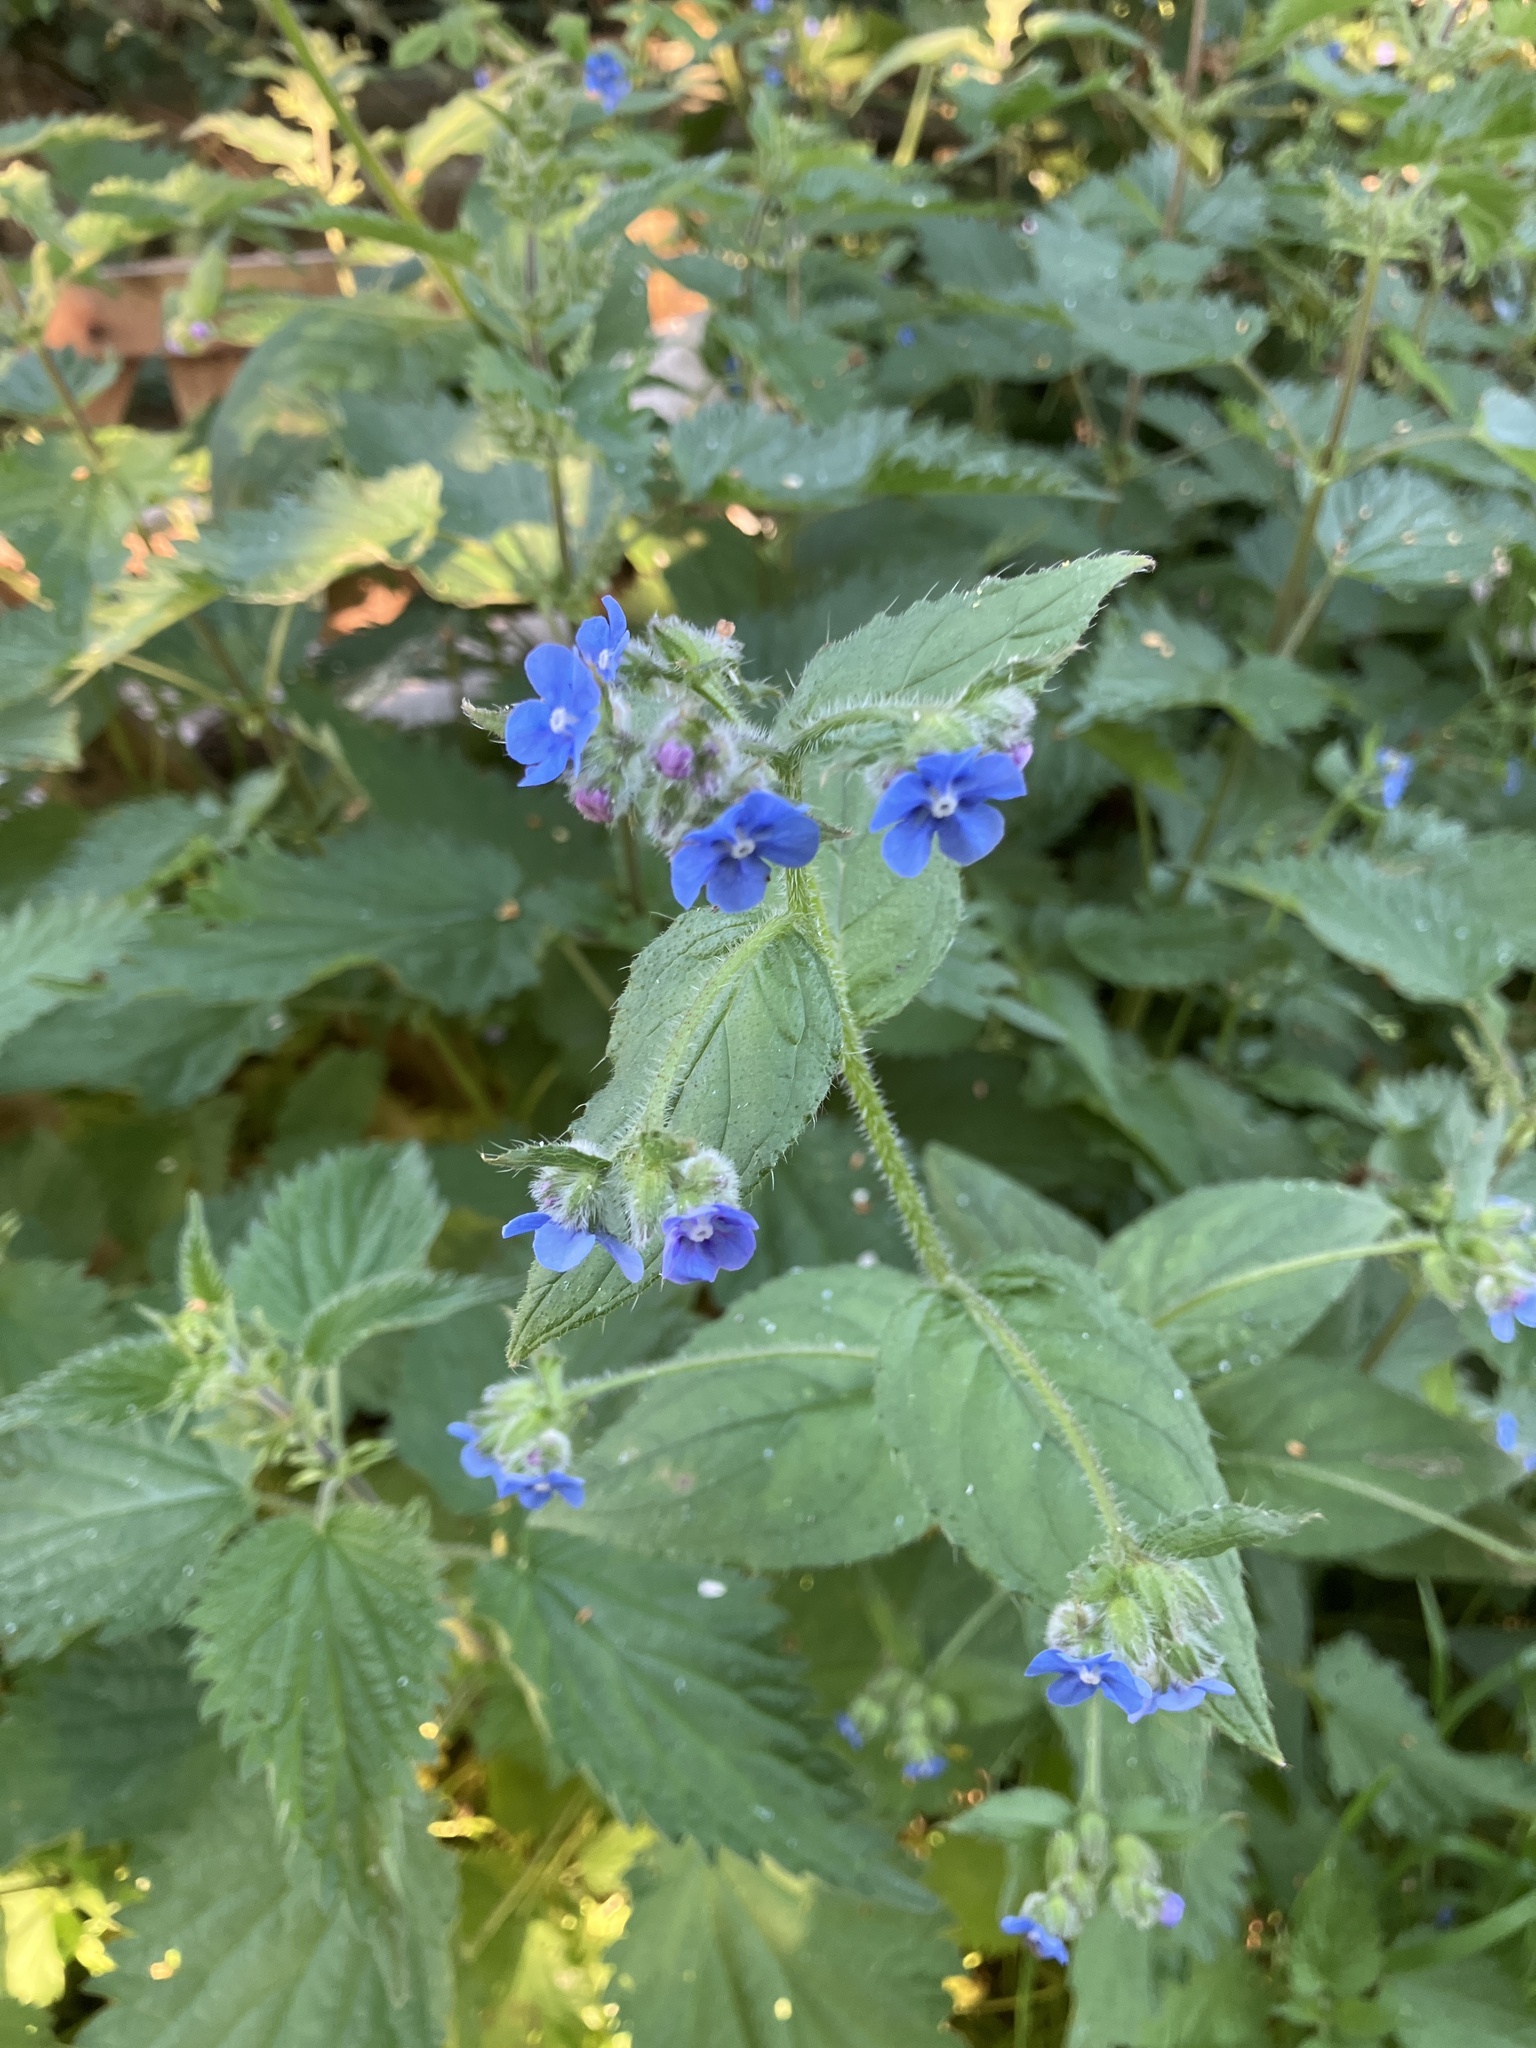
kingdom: Plantae
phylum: Tracheophyta
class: Magnoliopsida
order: Boraginales
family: Boraginaceae
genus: Pentaglottis
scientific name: Pentaglottis sempervirens
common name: Green alkanet
